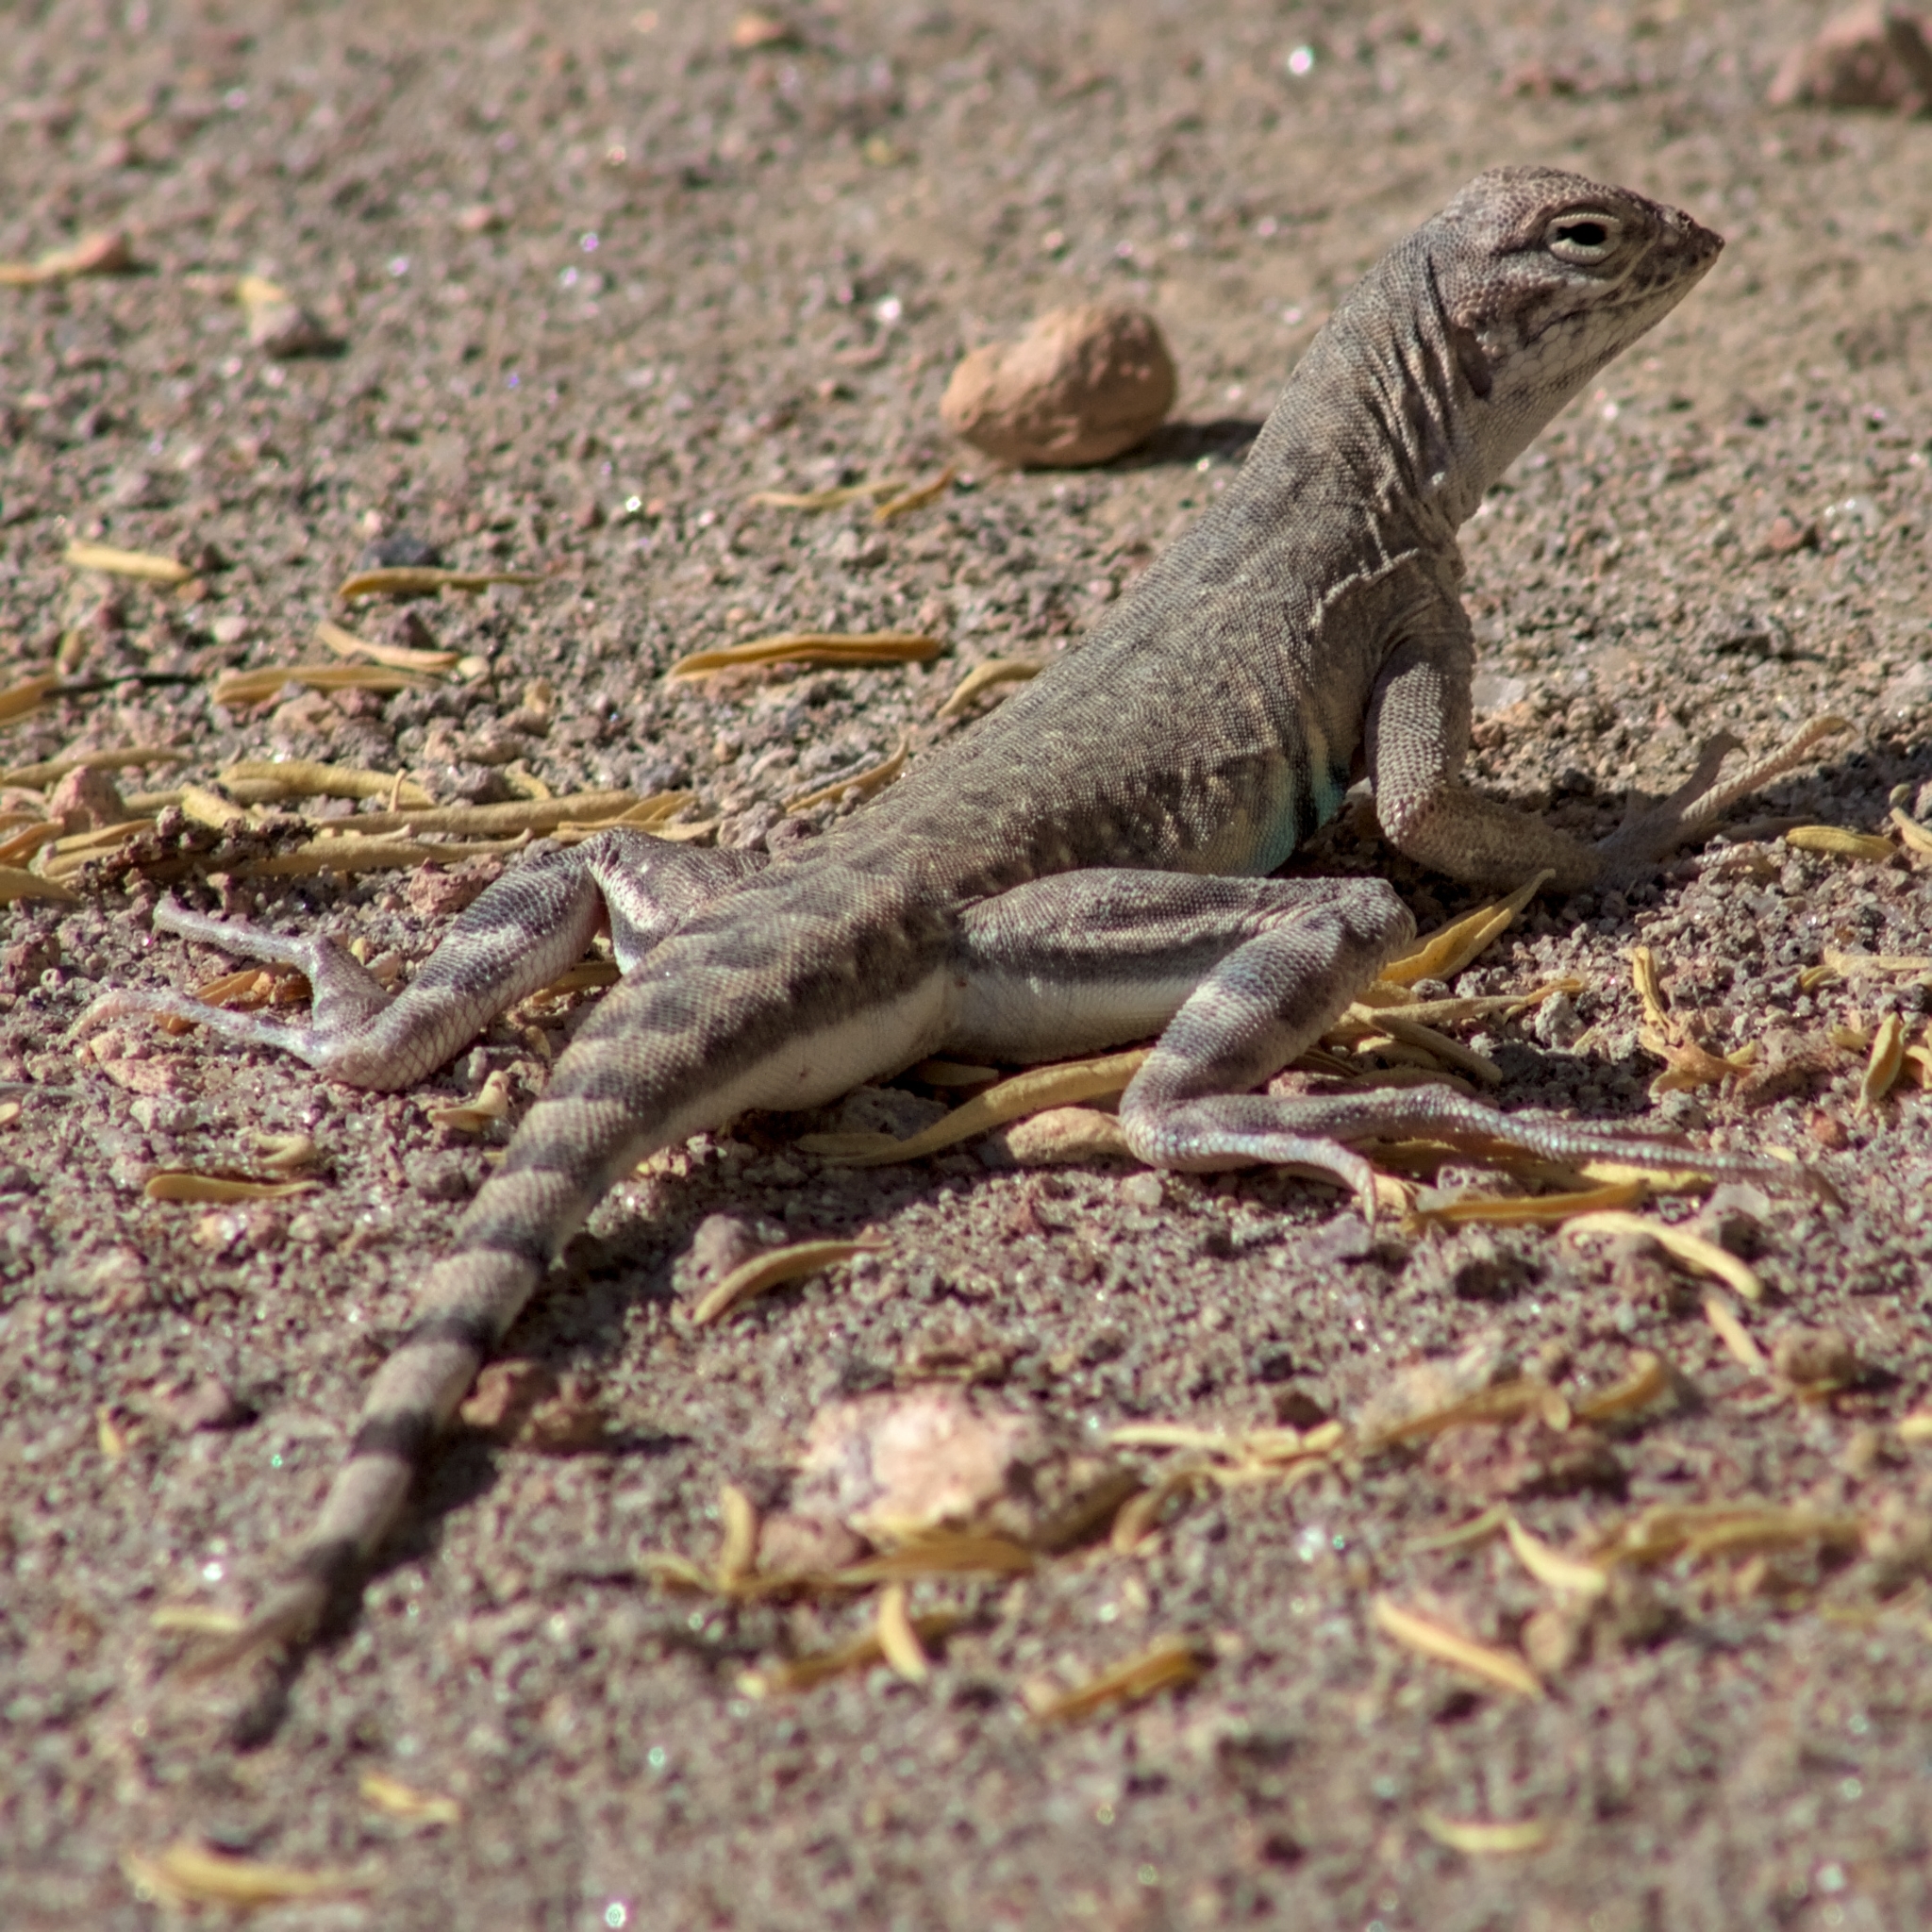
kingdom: Animalia
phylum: Chordata
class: Squamata
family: Phrynosomatidae
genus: Callisaurus
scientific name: Callisaurus draconoides
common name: Zebra-tailed lizard
